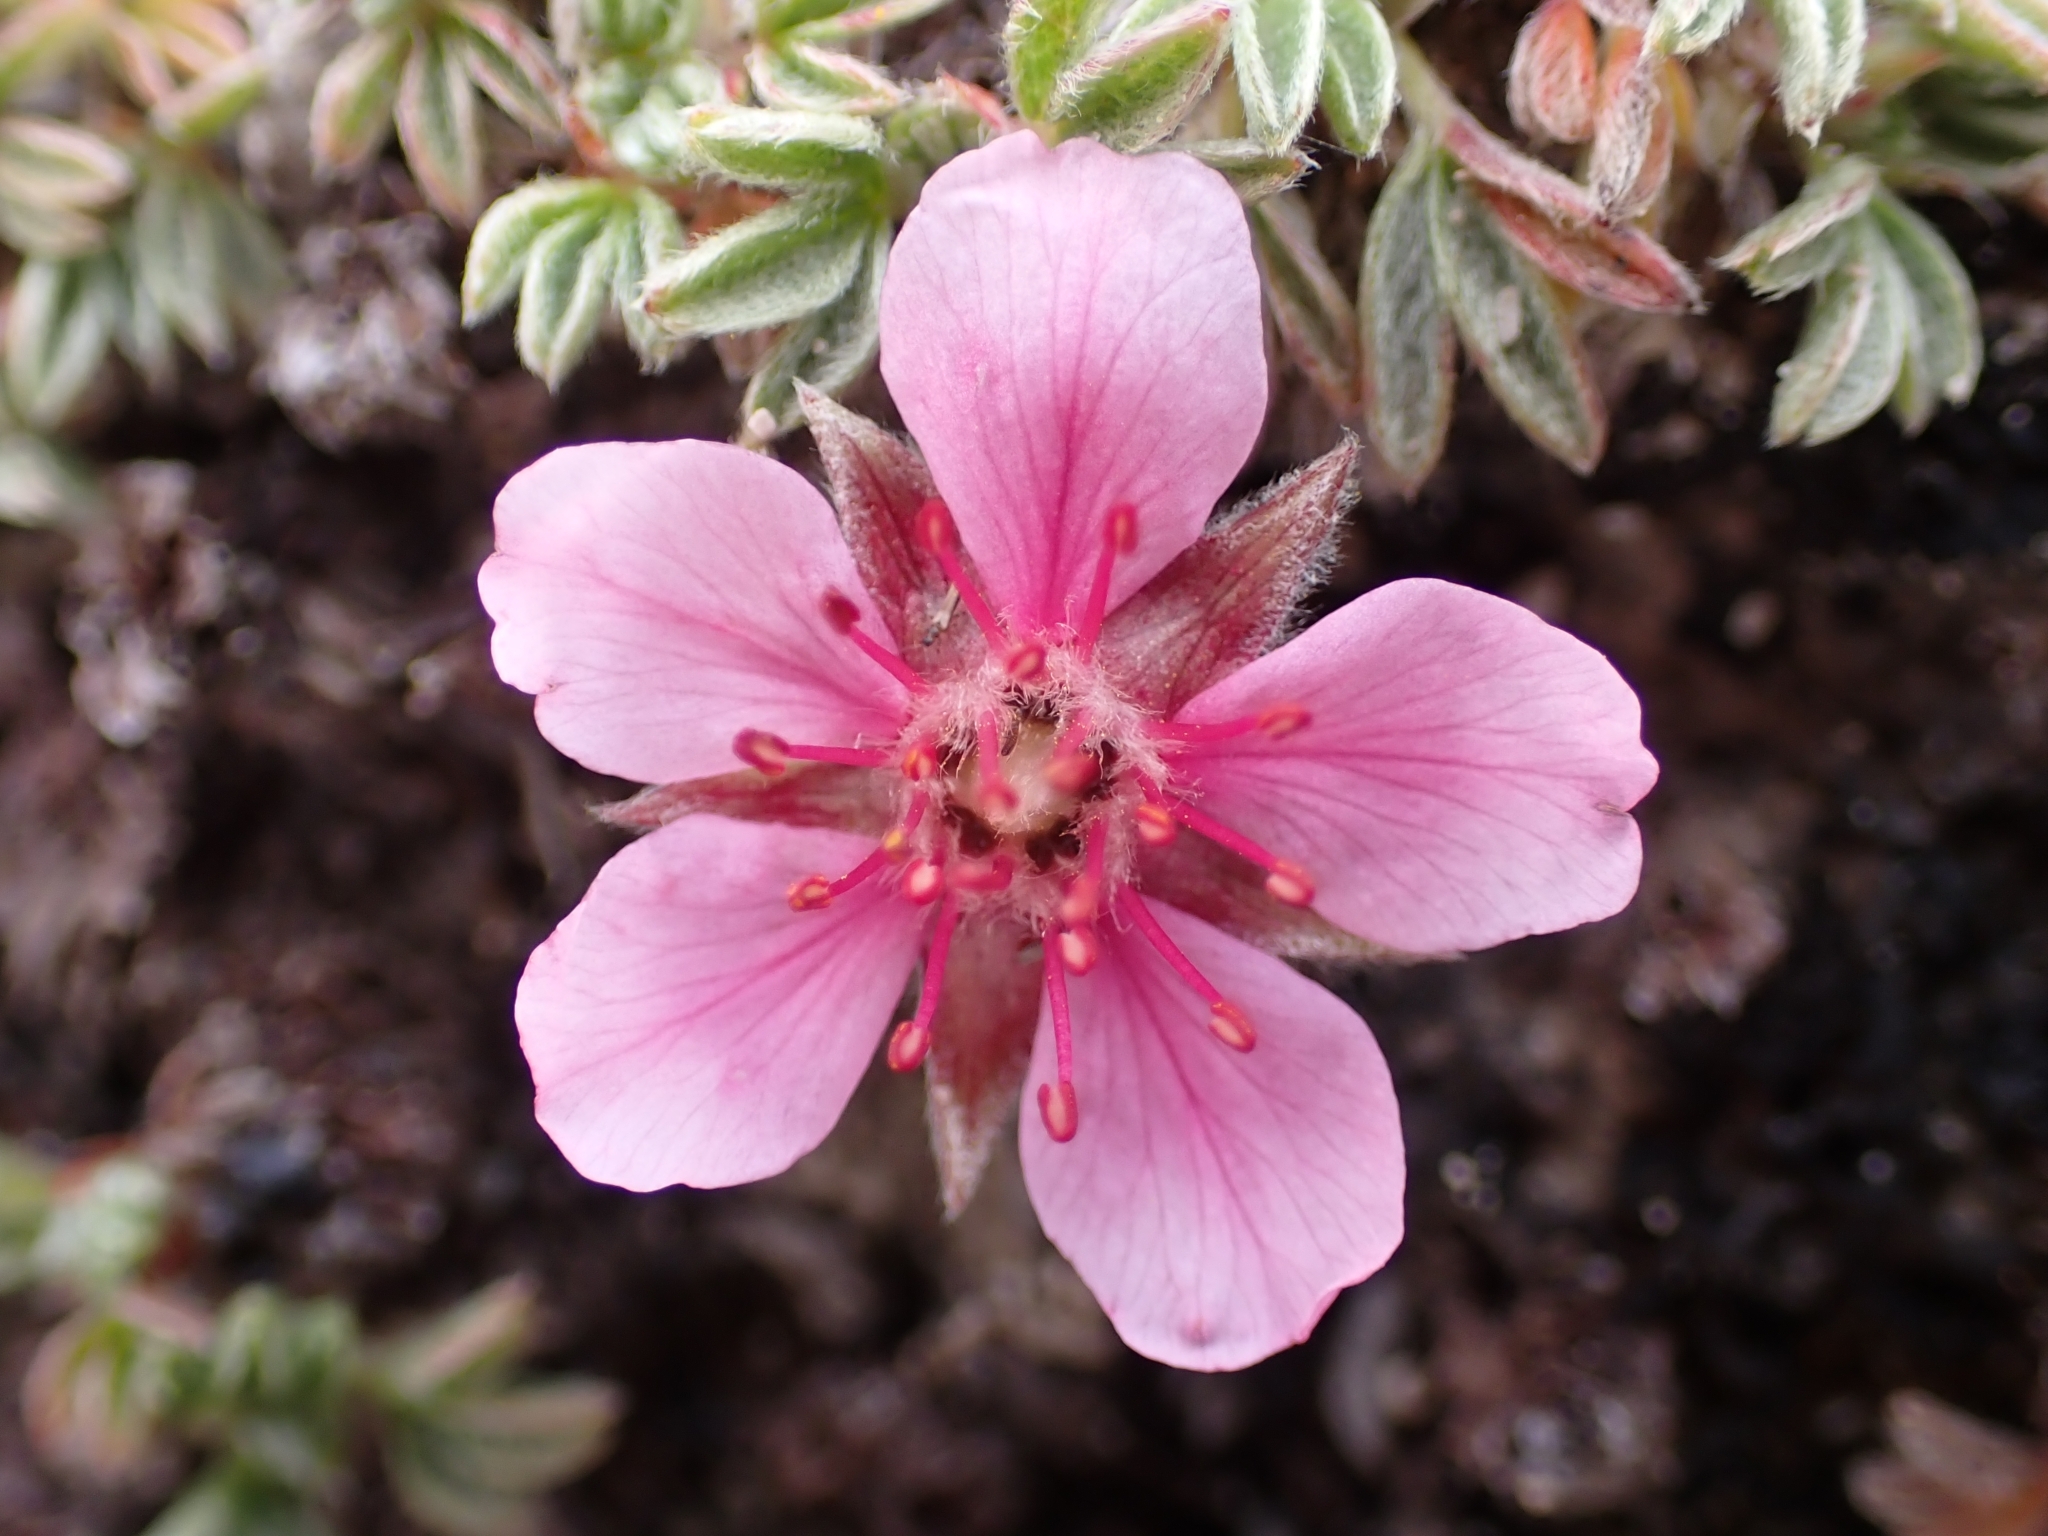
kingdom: Plantae
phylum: Tracheophyta
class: Magnoliopsida
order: Rosales
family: Rosaceae
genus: Potentilla
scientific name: Potentilla nitida
